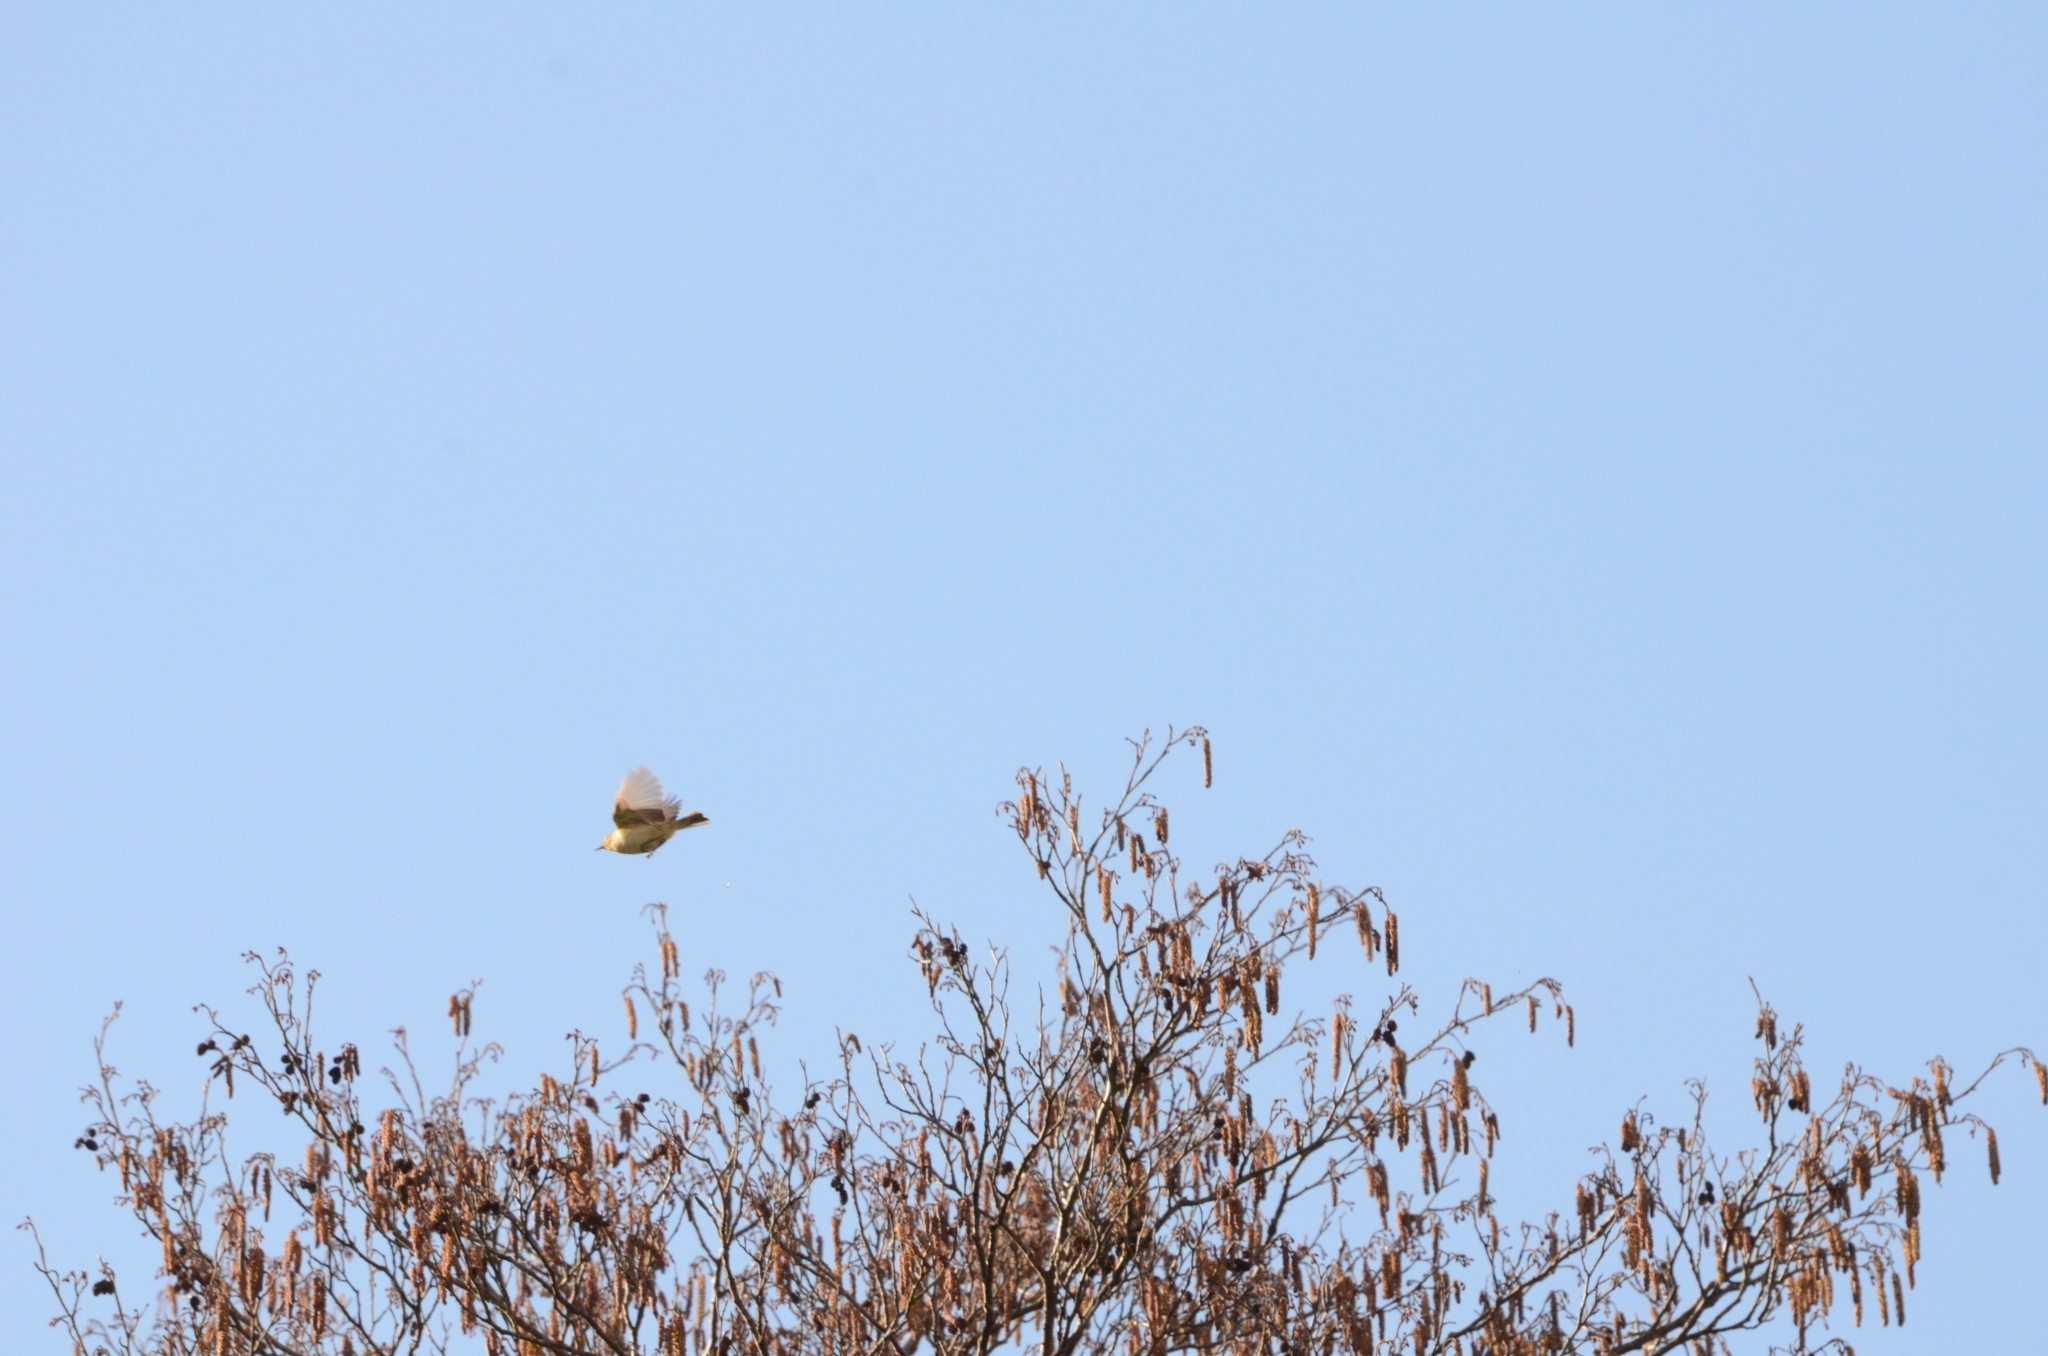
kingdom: Animalia
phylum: Chordata
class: Aves
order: Passeriformes
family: Phylloscopidae
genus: Phylloscopus
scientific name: Phylloscopus collybita
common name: Common chiffchaff
